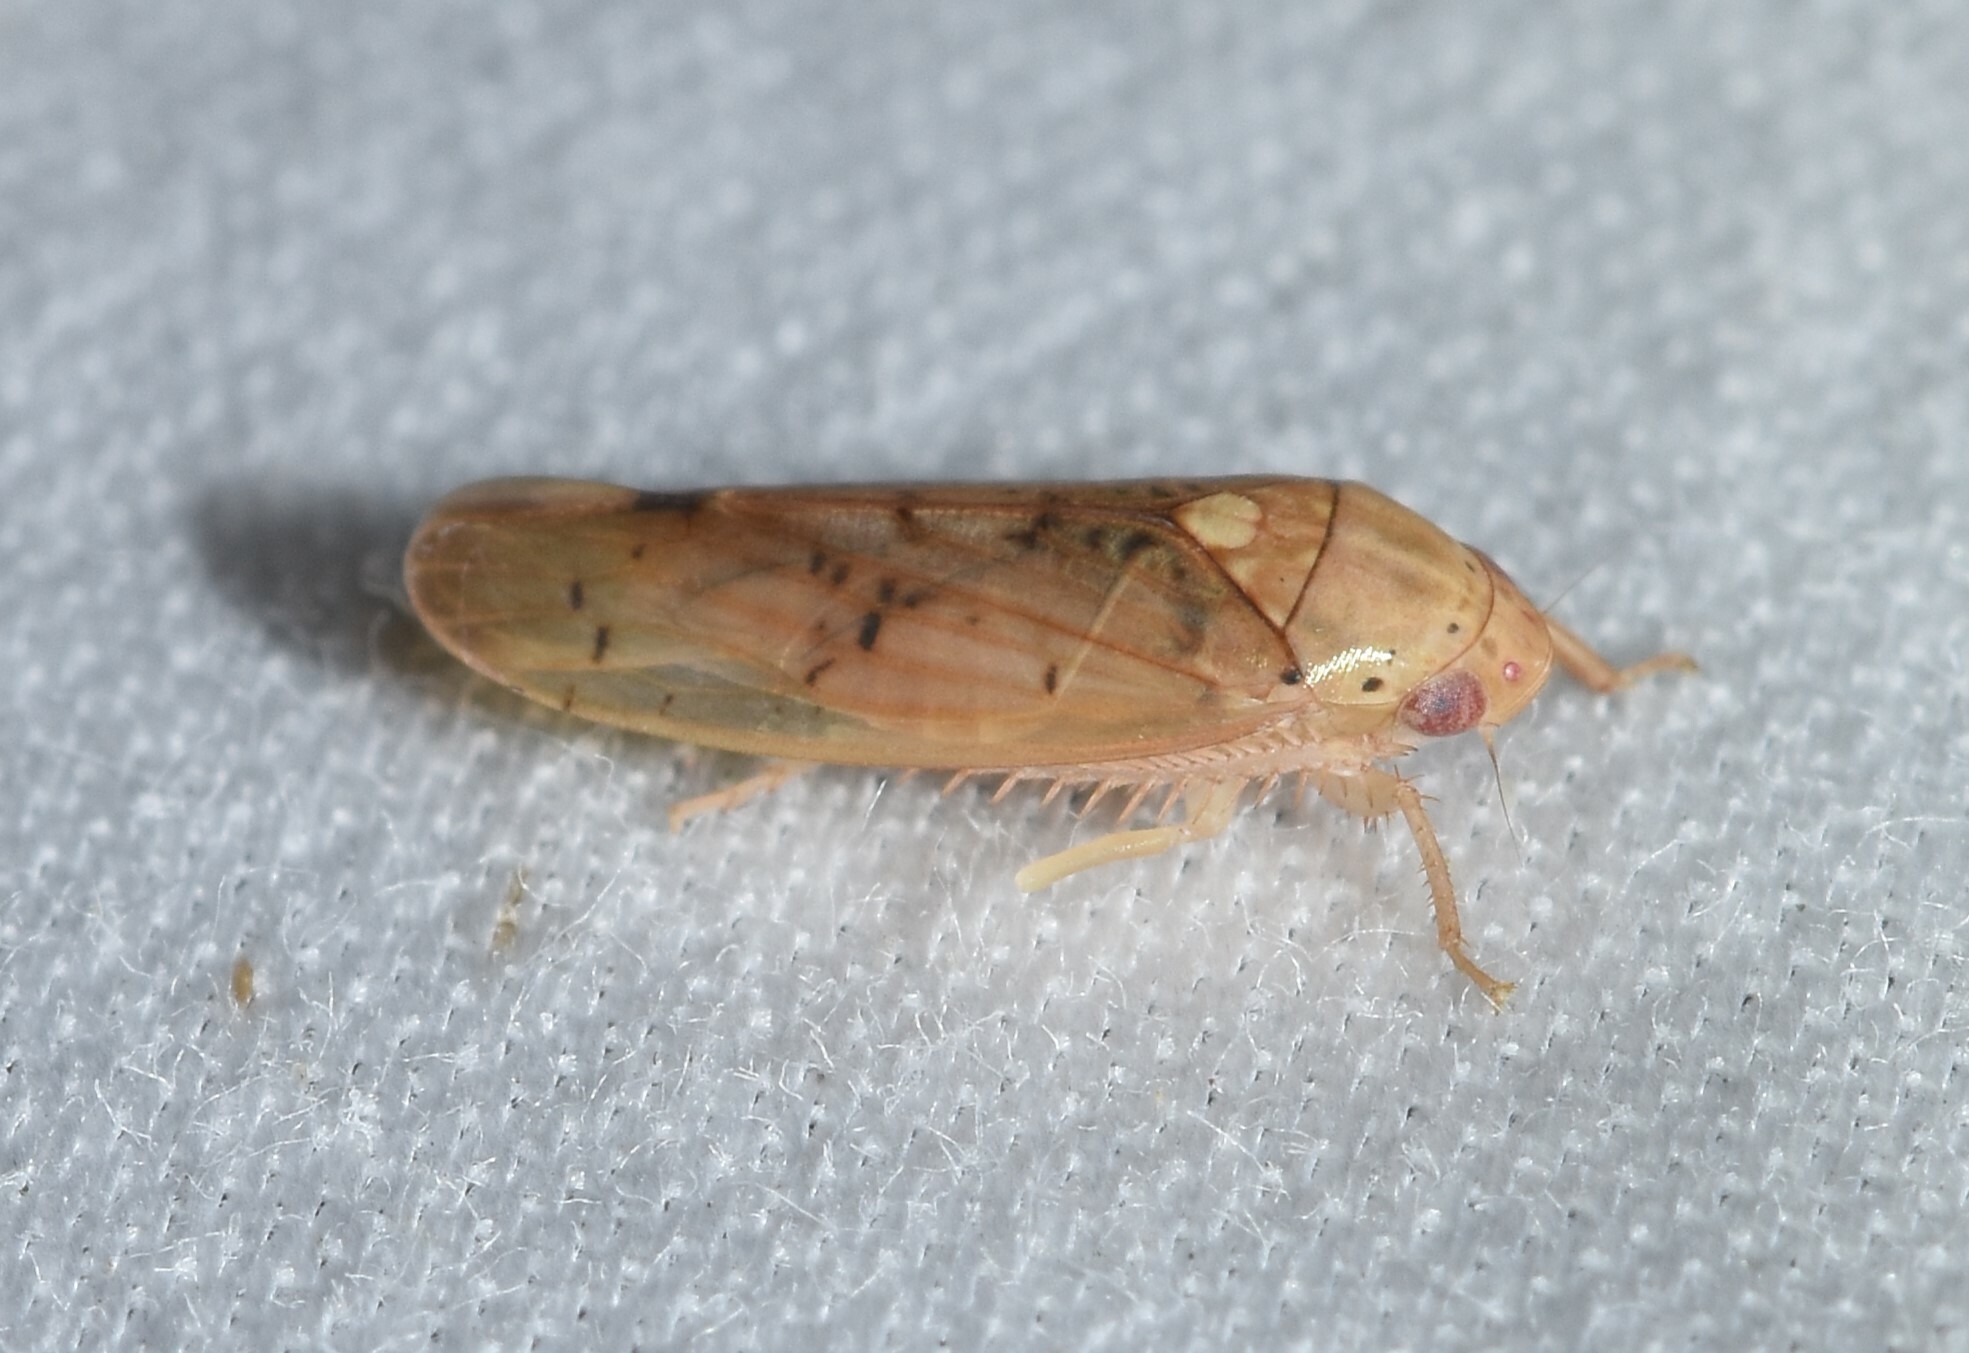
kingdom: Animalia
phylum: Arthropoda
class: Insecta
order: Hemiptera
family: Cicadellidae
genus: Ponana
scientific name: Ponana quadralaba
